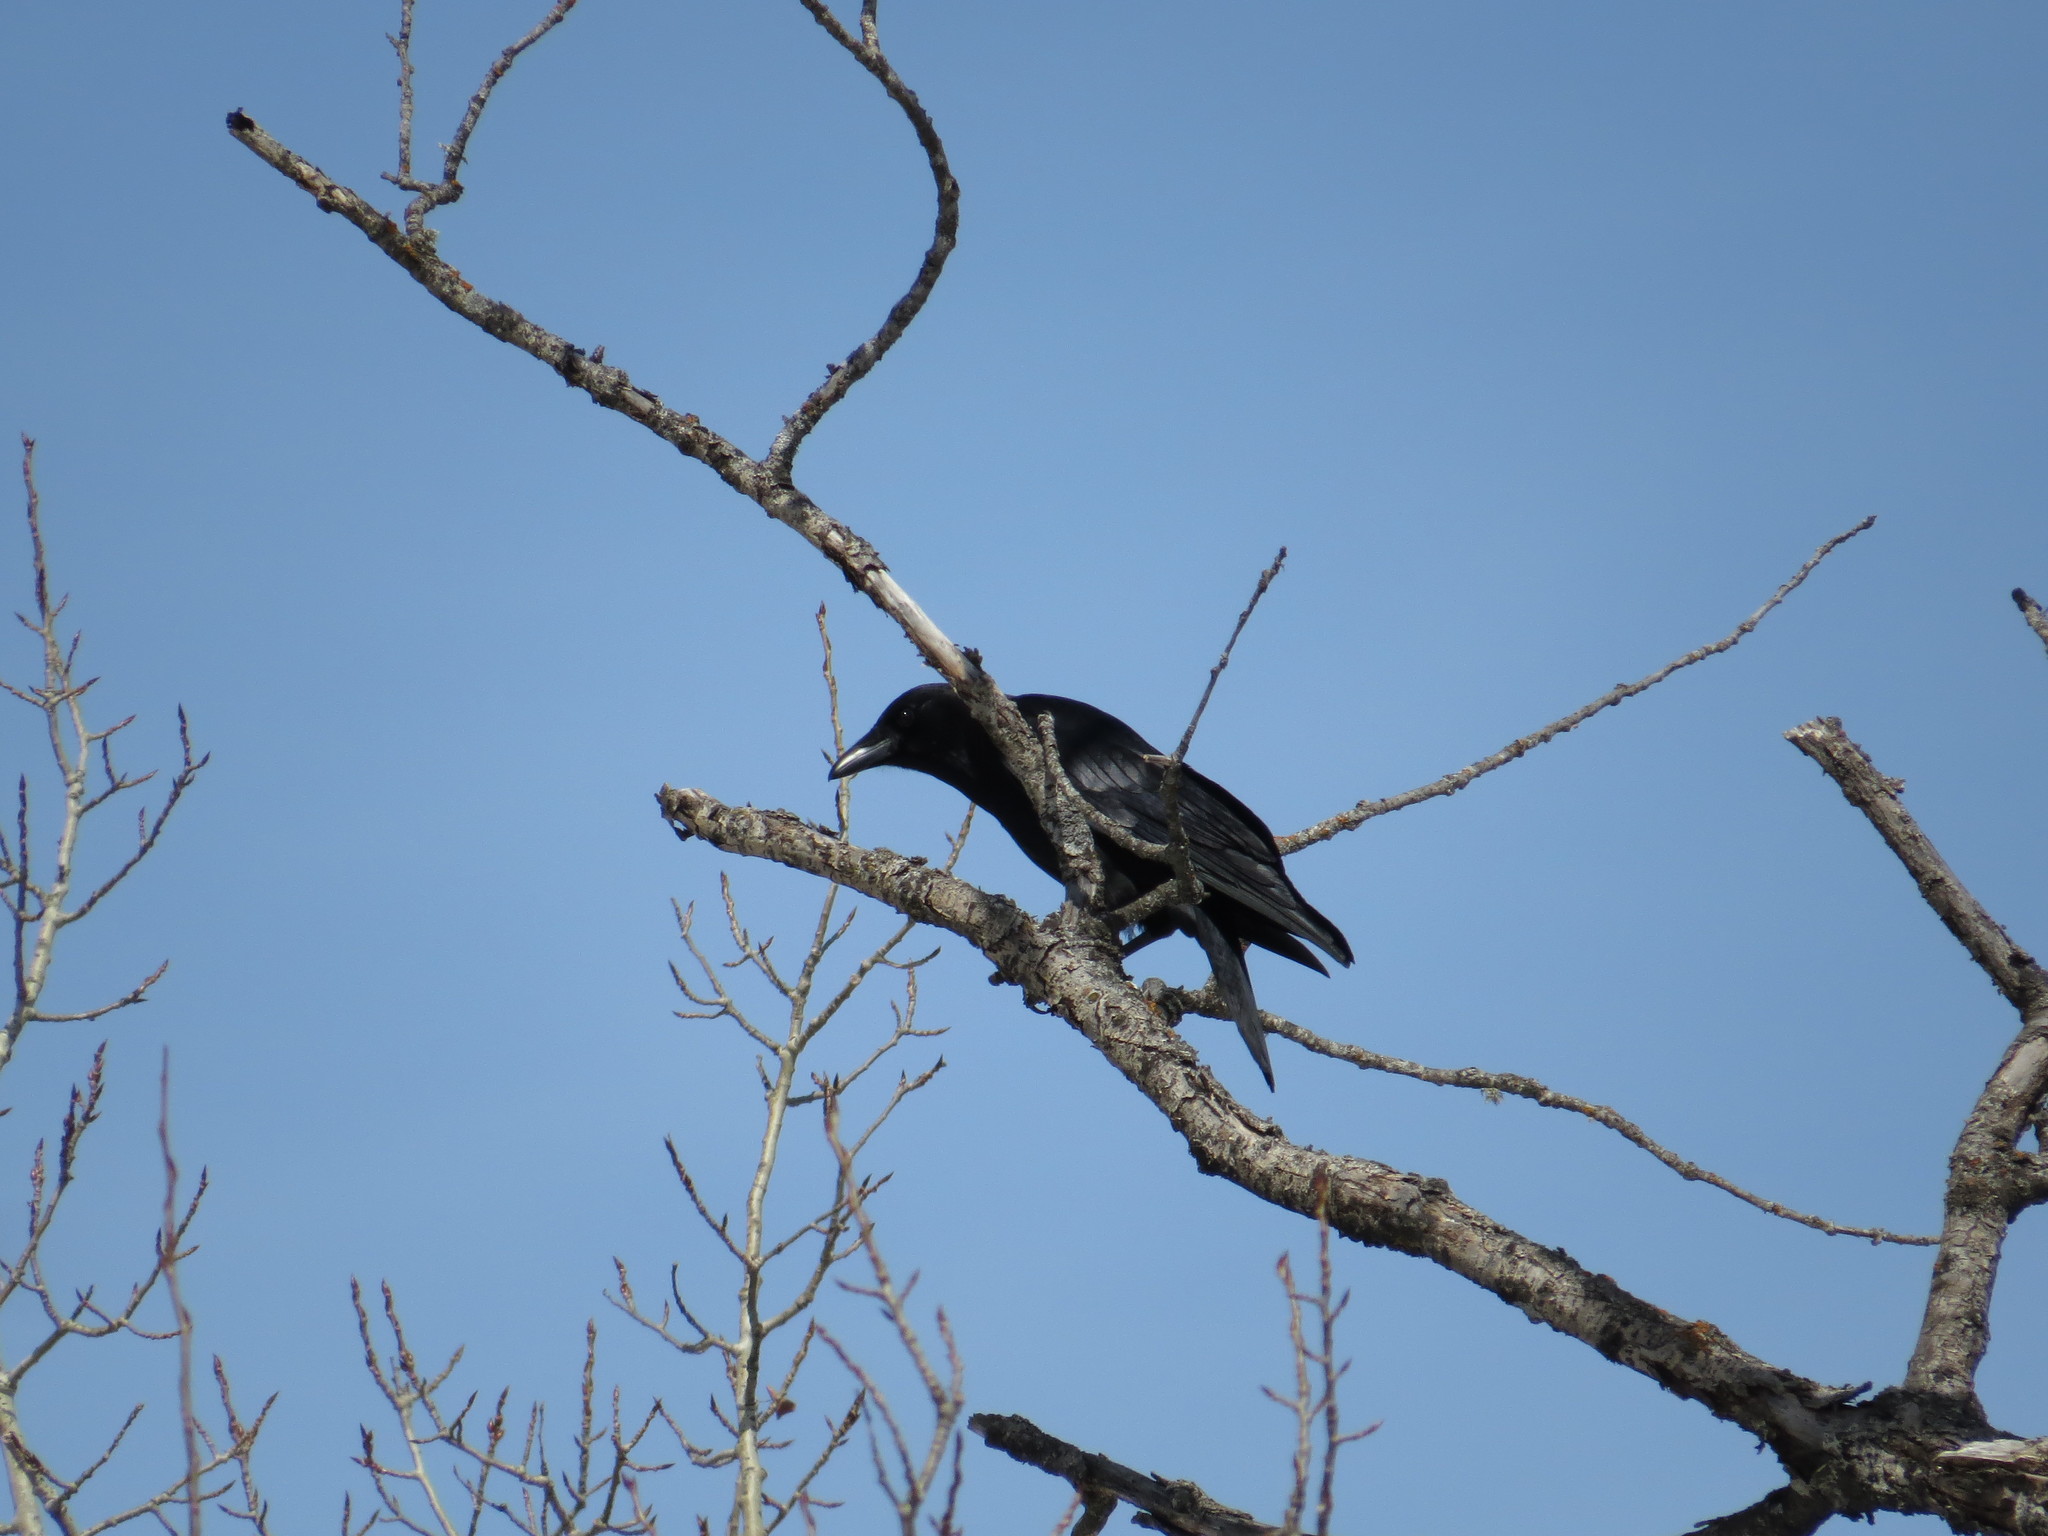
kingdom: Animalia
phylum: Chordata
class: Aves
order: Passeriformes
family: Corvidae
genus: Corvus
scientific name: Corvus brachyrhynchos
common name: American crow
